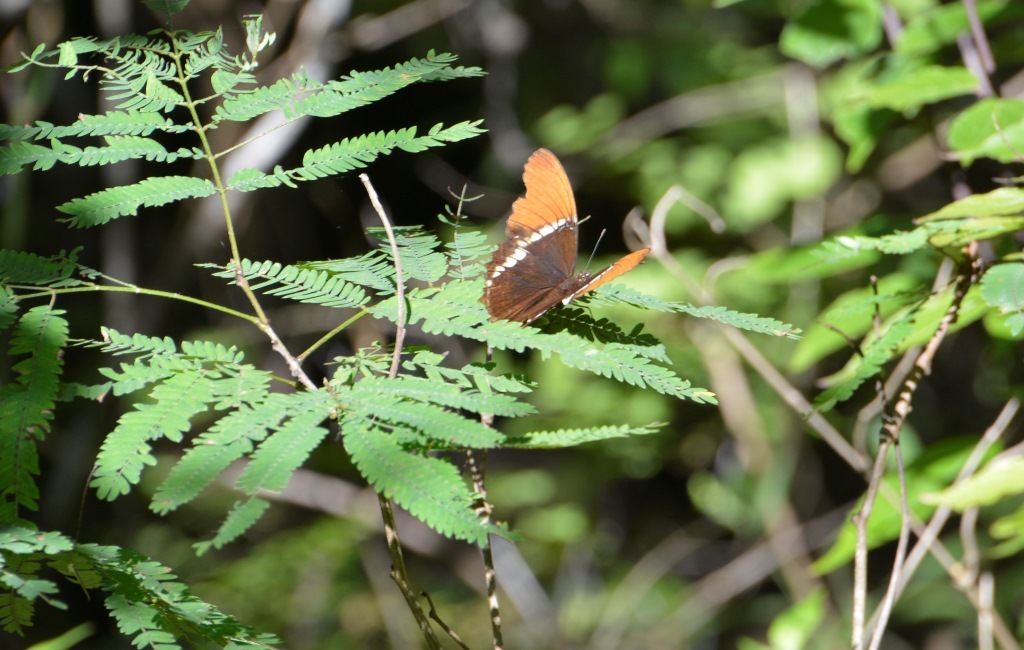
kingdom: Animalia
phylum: Arthropoda
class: Insecta
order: Lepidoptera
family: Nymphalidae
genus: Siproeta
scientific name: Siproeta epaphus
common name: Rusty-tipped page
